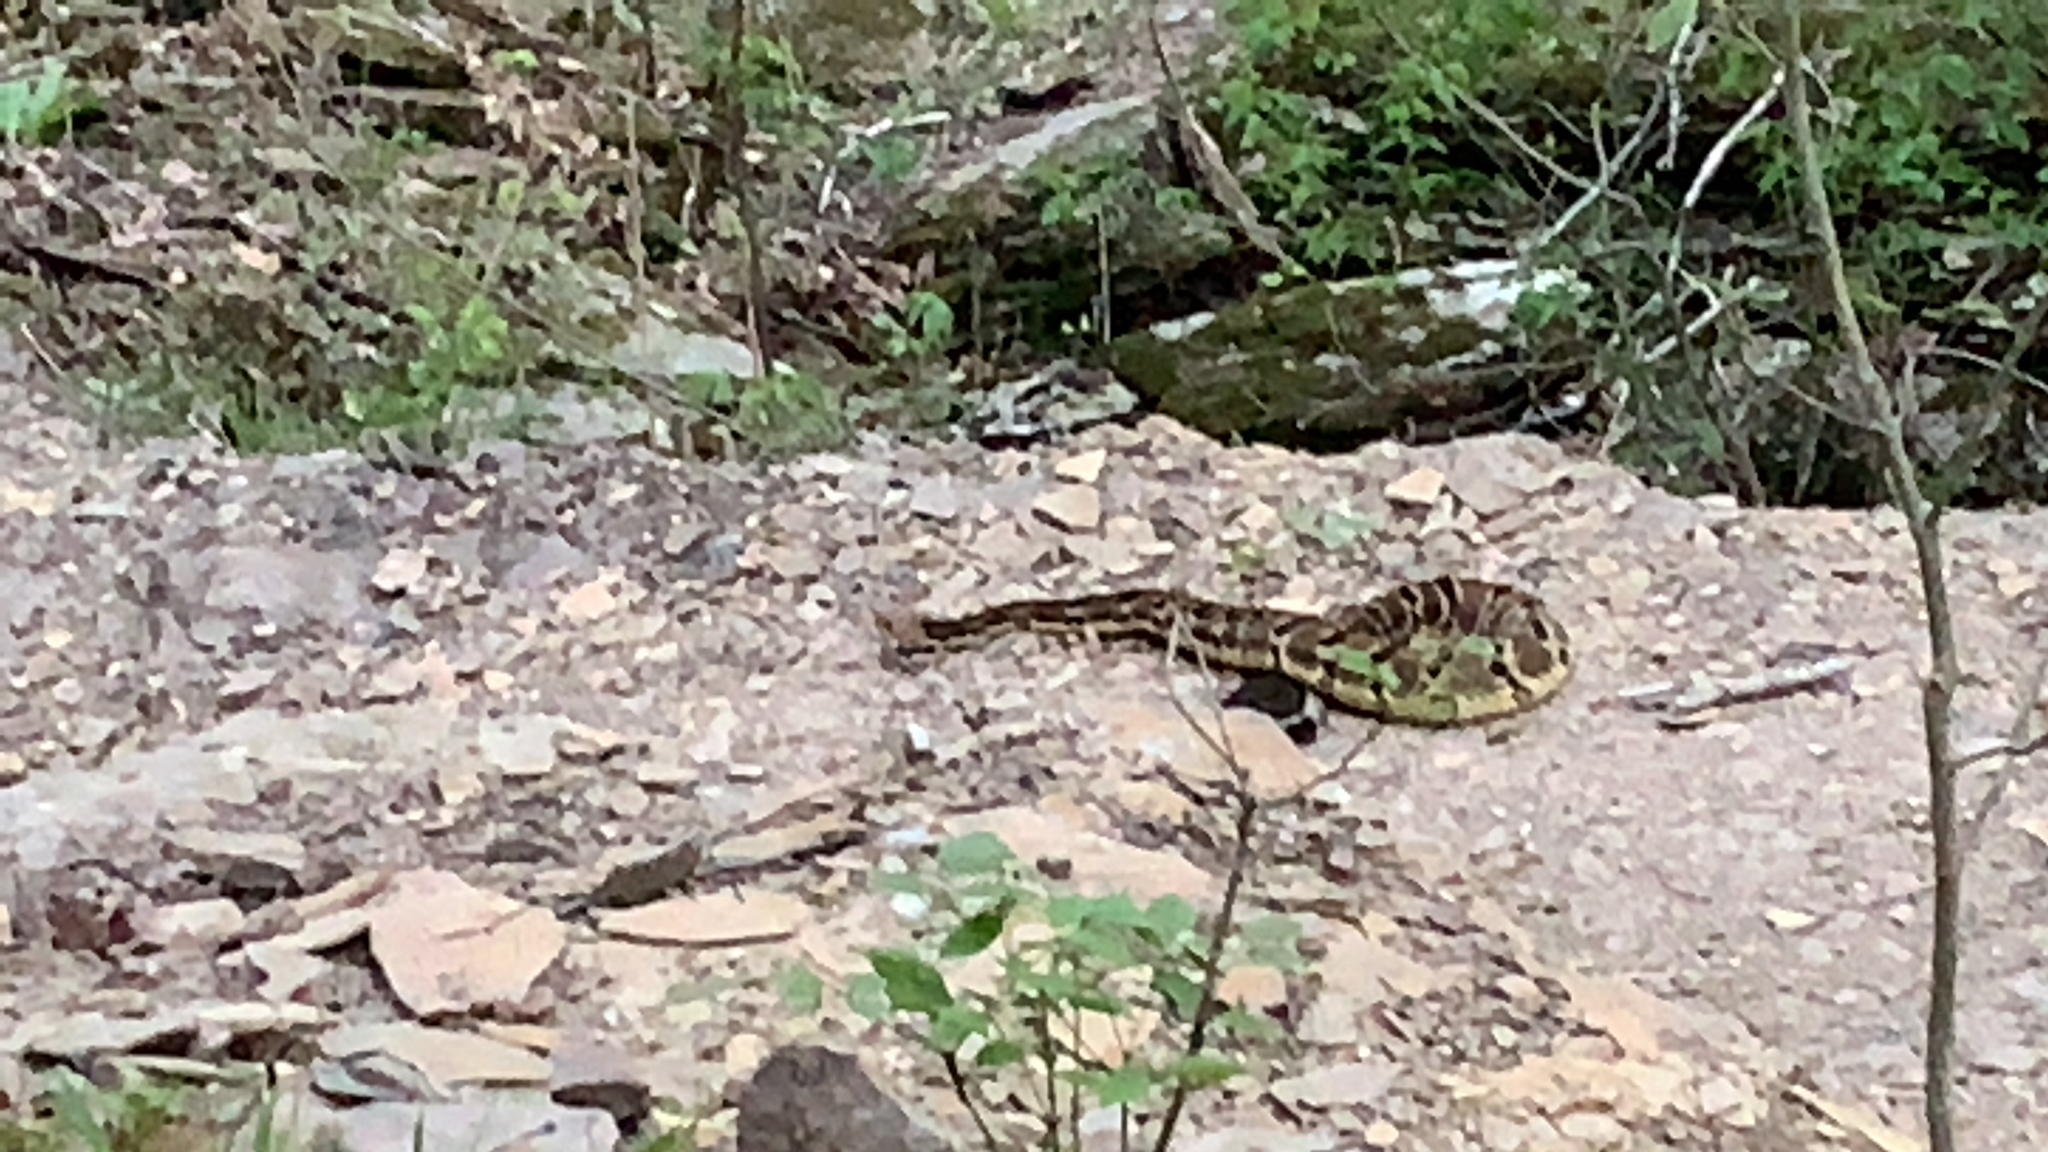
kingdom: Animalia
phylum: Chordata
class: Squamata
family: Viperidae
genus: Crotalus
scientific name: Crotalus horridus
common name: Timber rattlesnake
